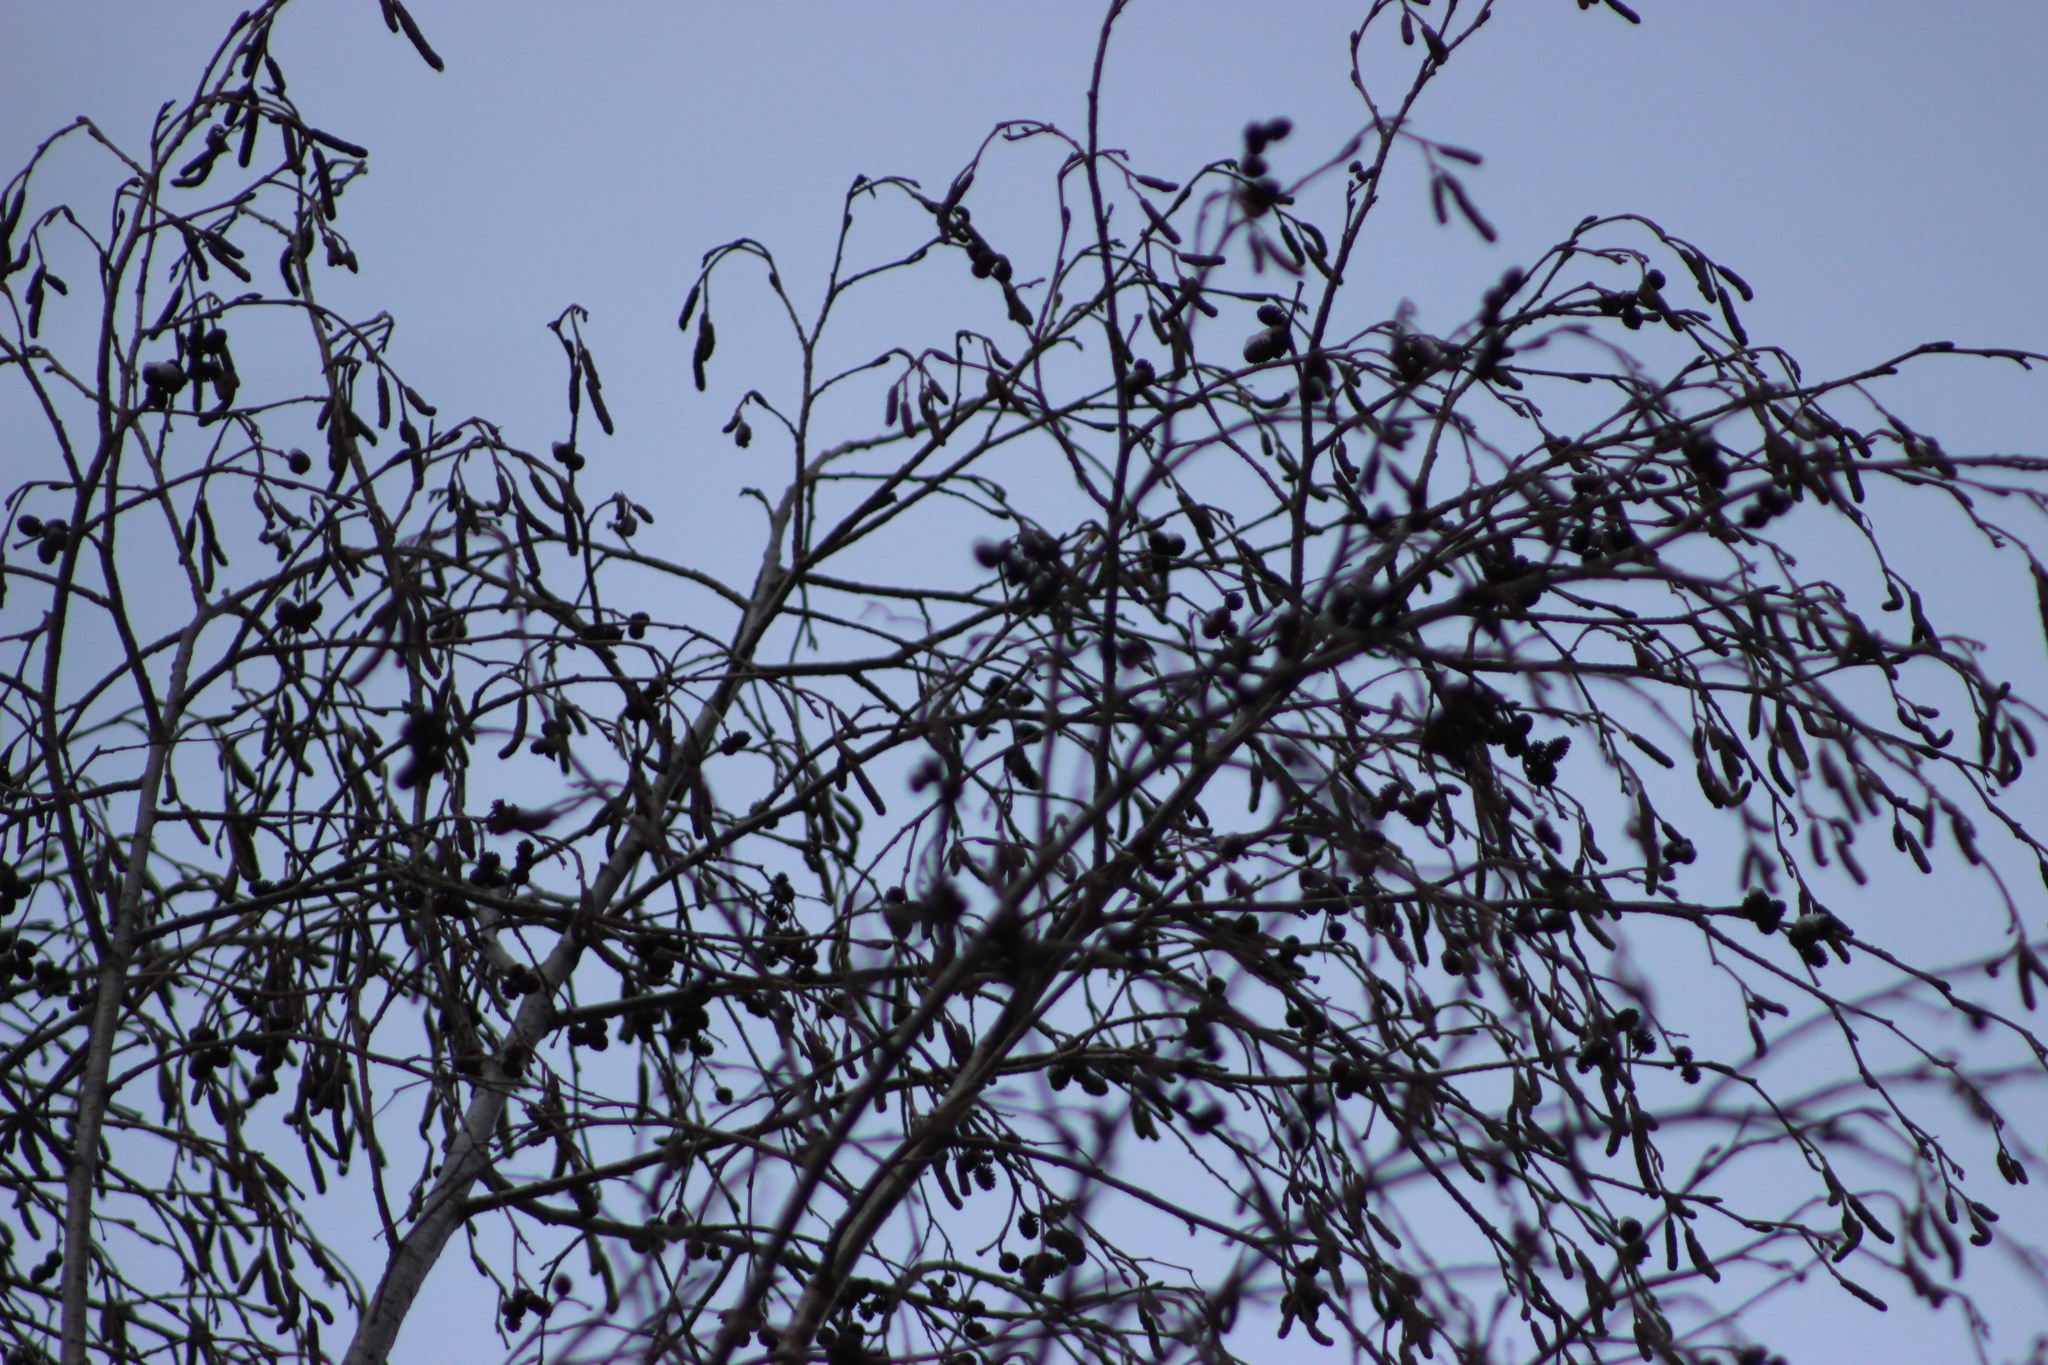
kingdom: Plantae
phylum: Tracheophyta
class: Magnoliopsida
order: Fagales
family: Betulaceae
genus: Alnus
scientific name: Alnus incana
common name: Grey alder
